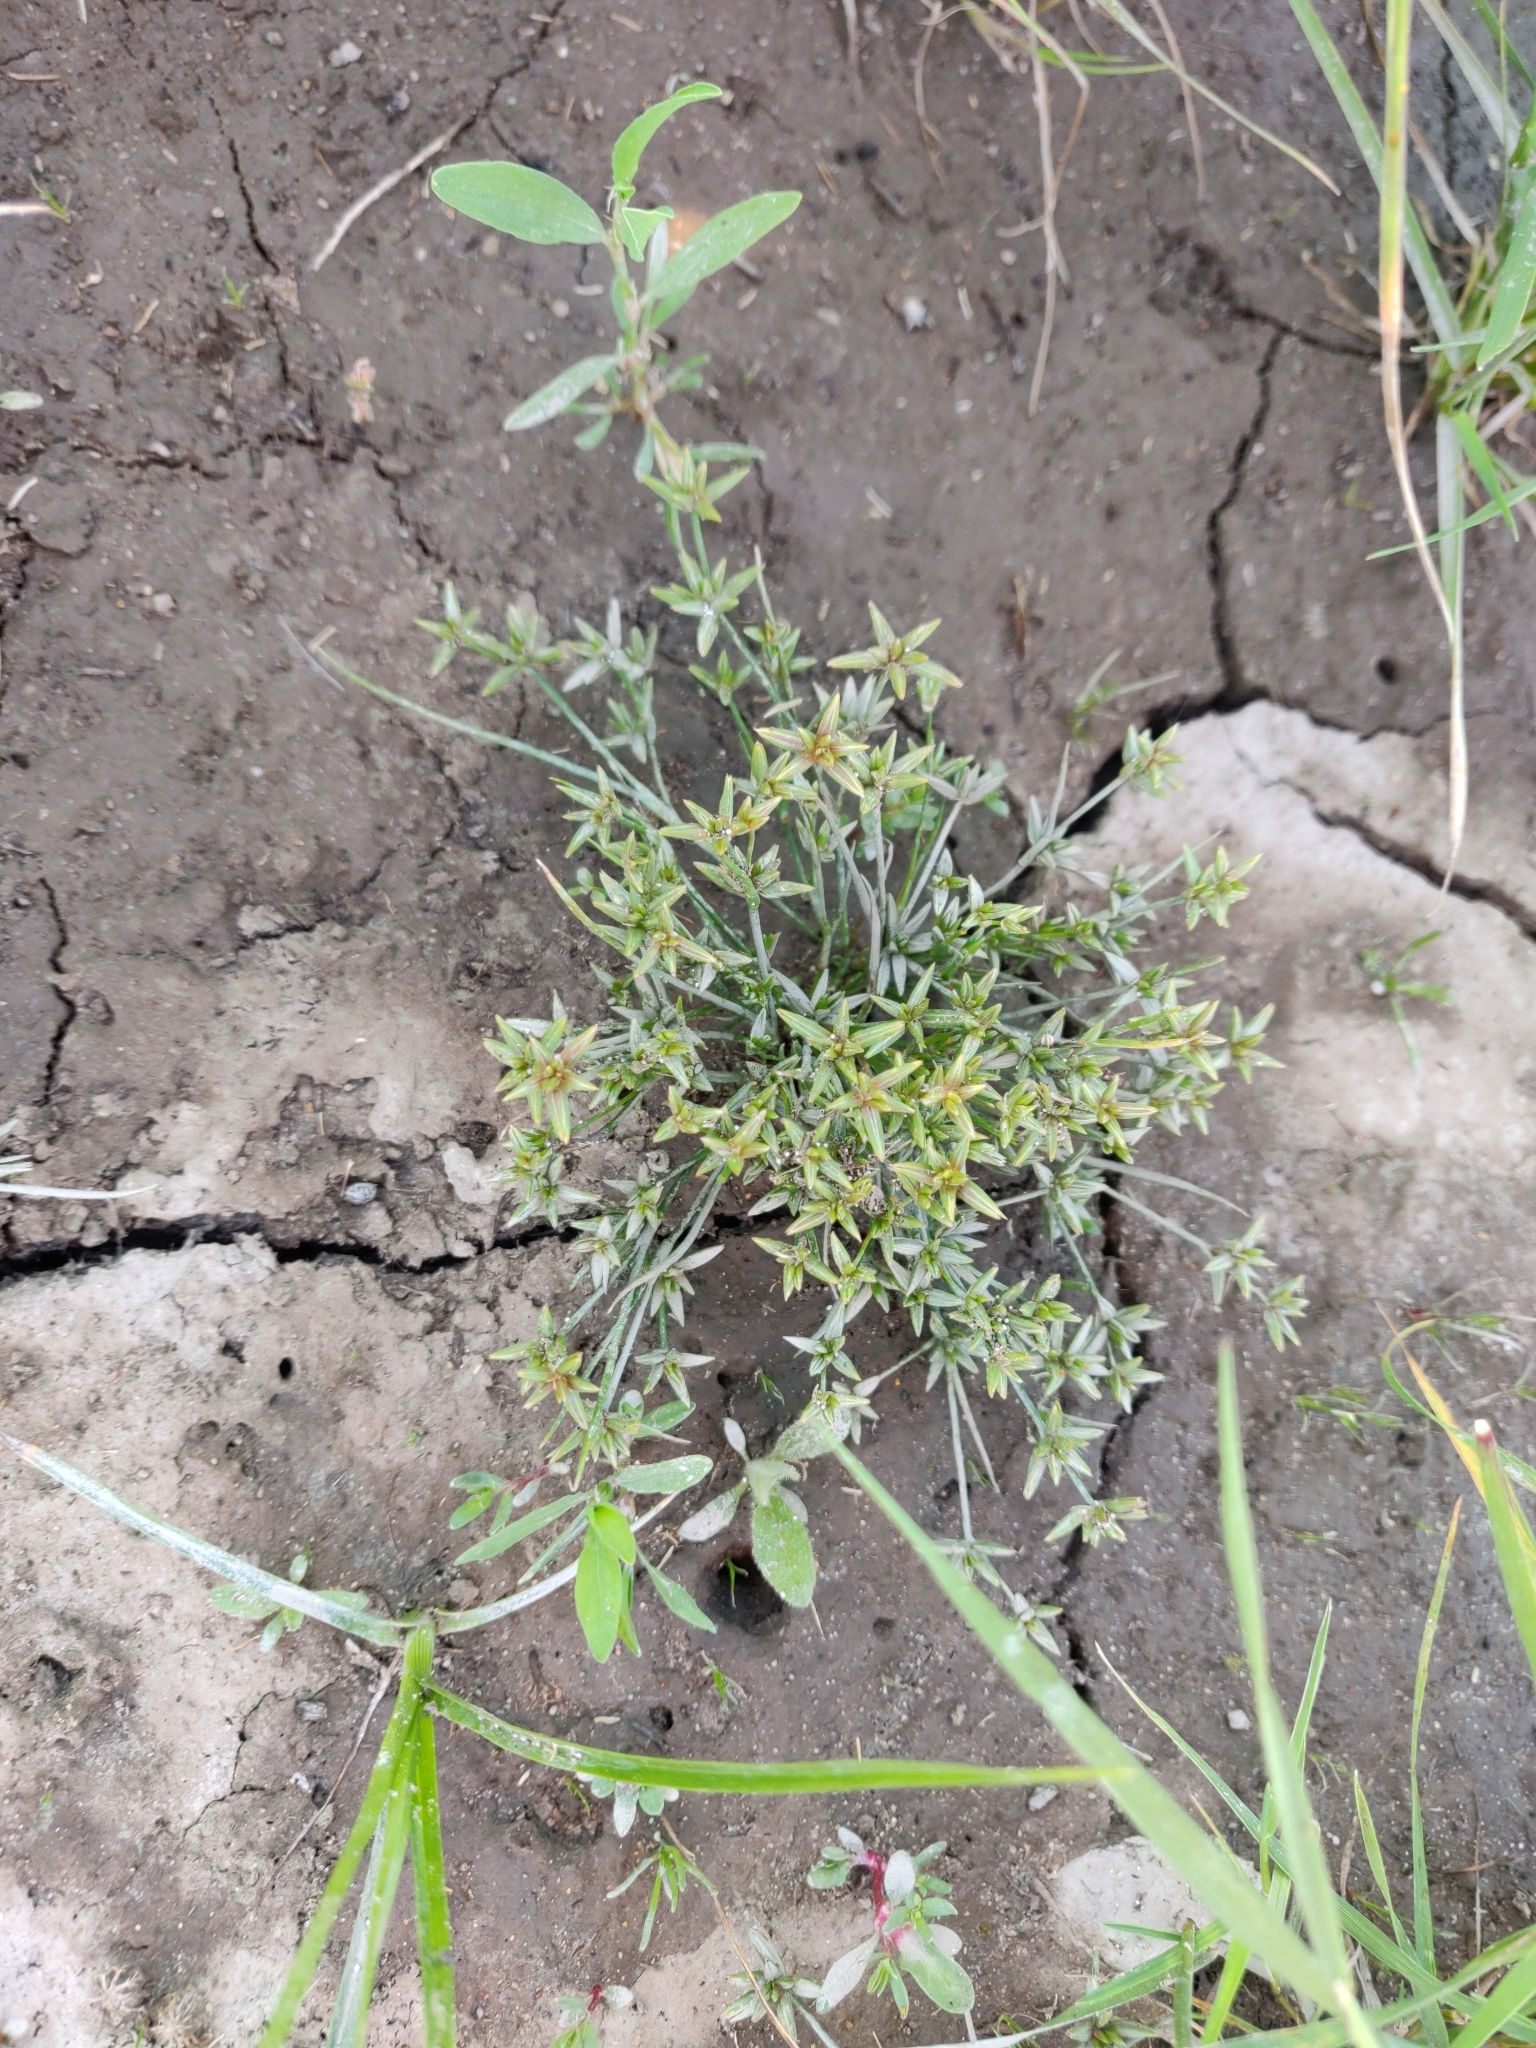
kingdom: Plantae
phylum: Tracheophyta
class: Liliopsida
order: Poales
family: Juncaceae
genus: Juncus
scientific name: Juncus pygmaeus
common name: Pigmy rush
